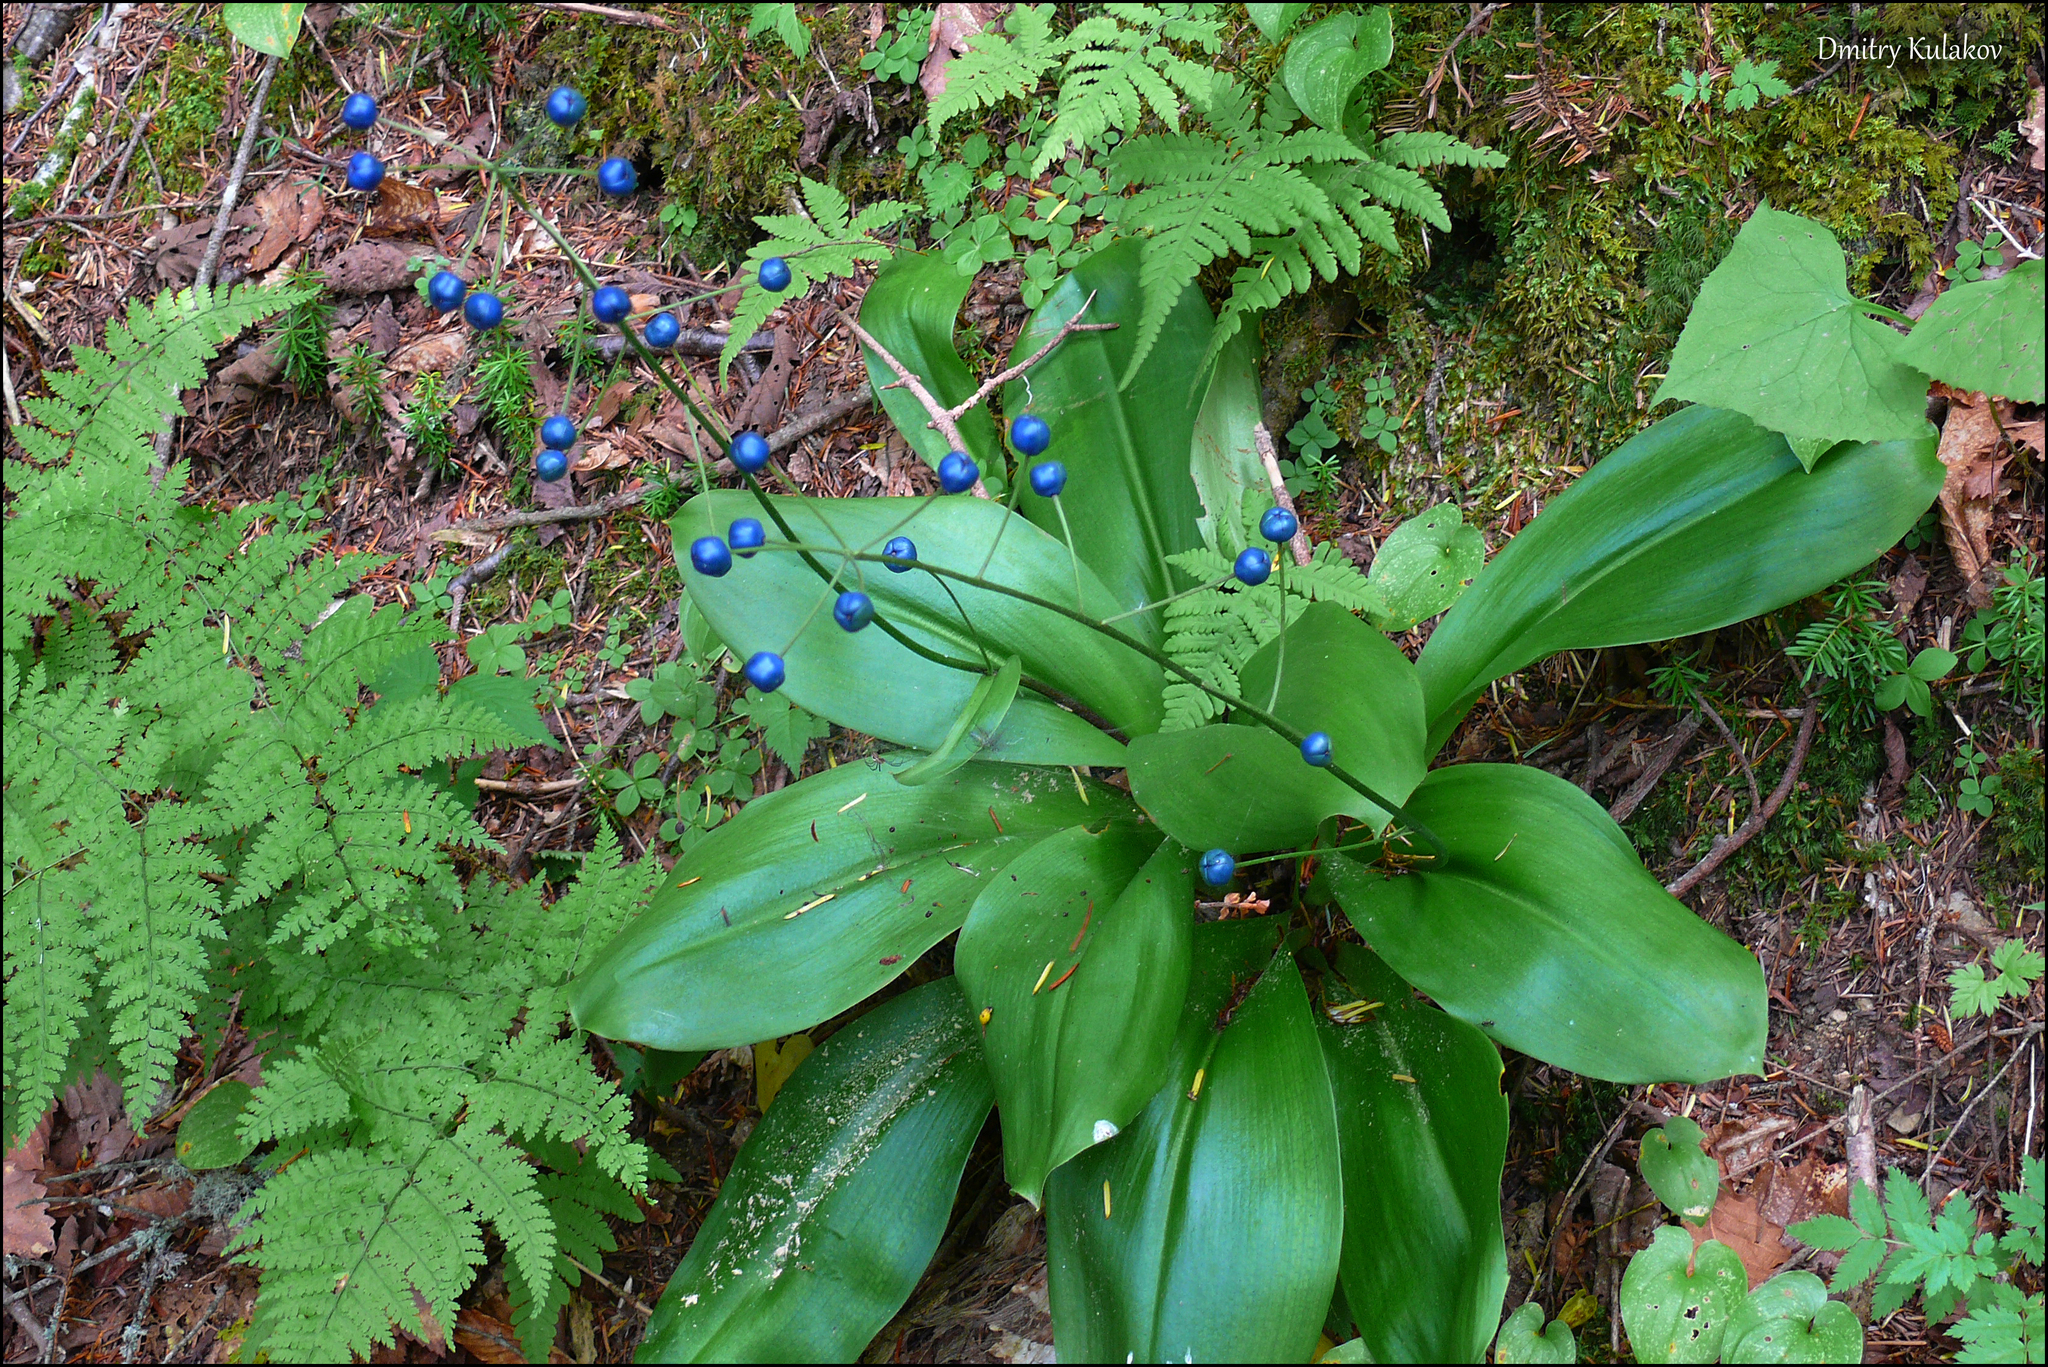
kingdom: Plantae
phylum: Tracheophyta
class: Liliopsida
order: Liliales
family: Liliaceae
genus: Clintonia
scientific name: Clintonia udensis
